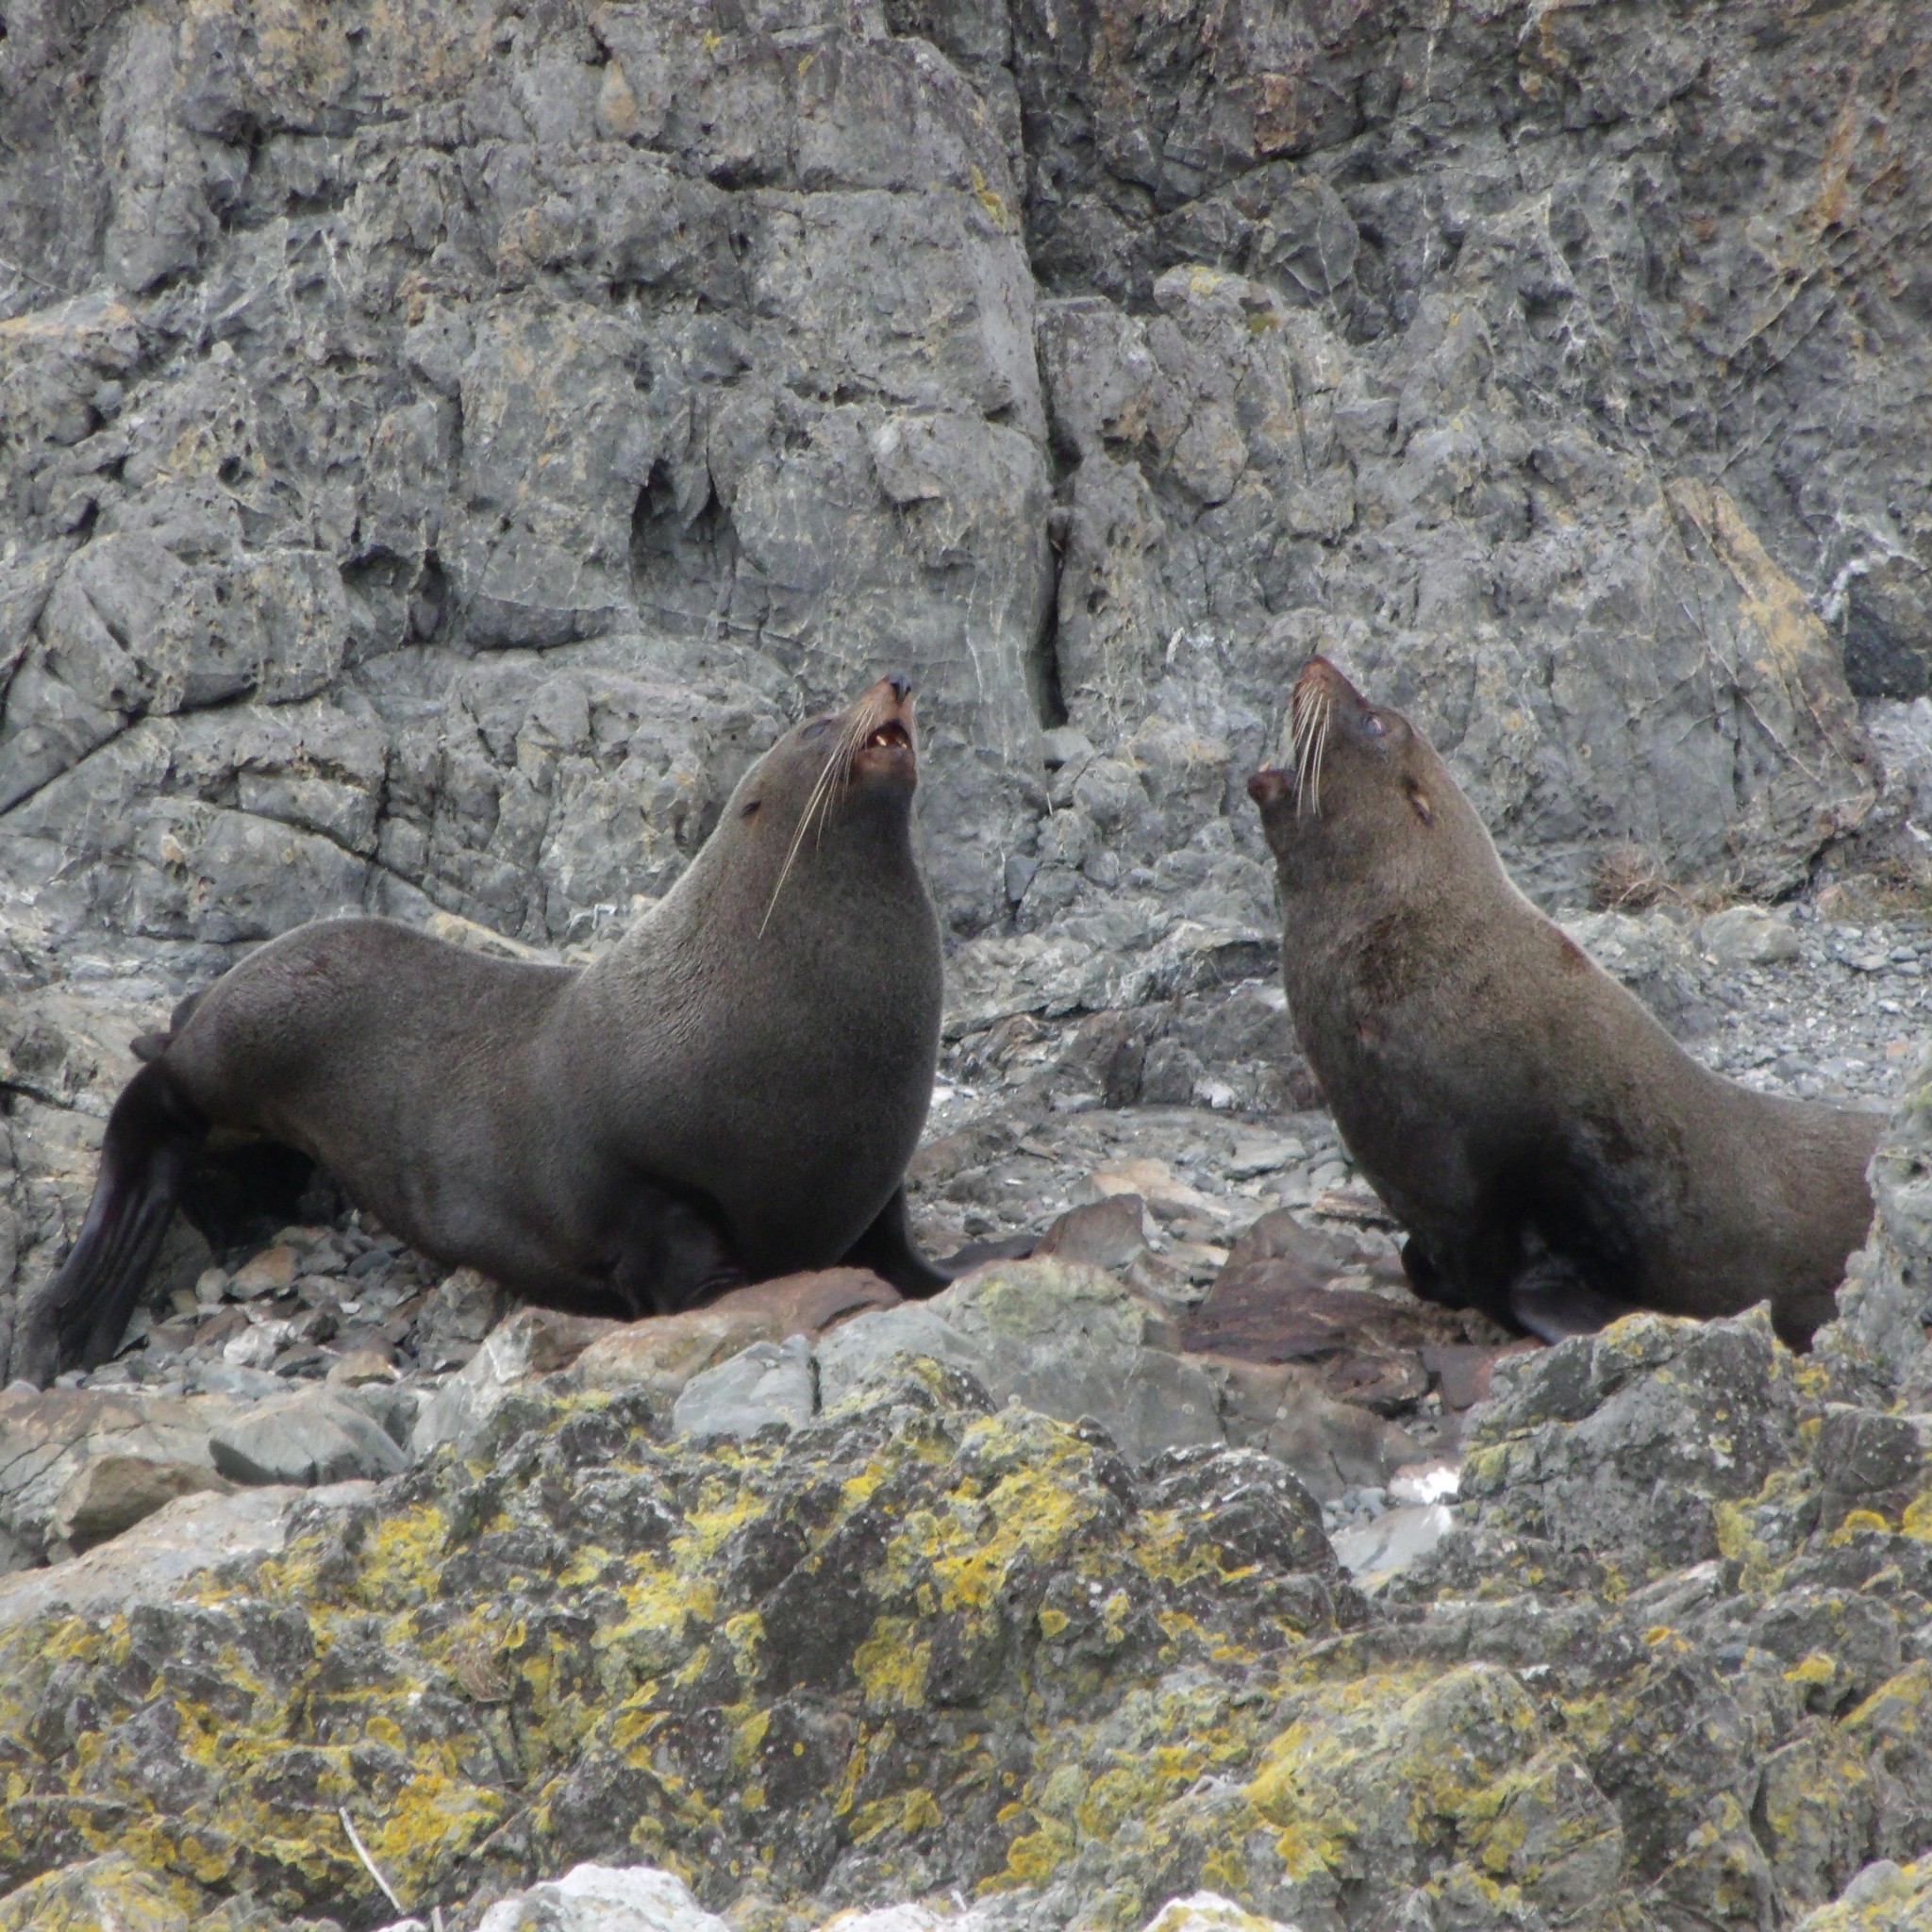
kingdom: Animalia
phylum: Chordata
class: Mammalia
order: Carnivora
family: Otariidae
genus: Arctocephalus
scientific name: Arctocephalus forsteri
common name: New zealand fur seal
